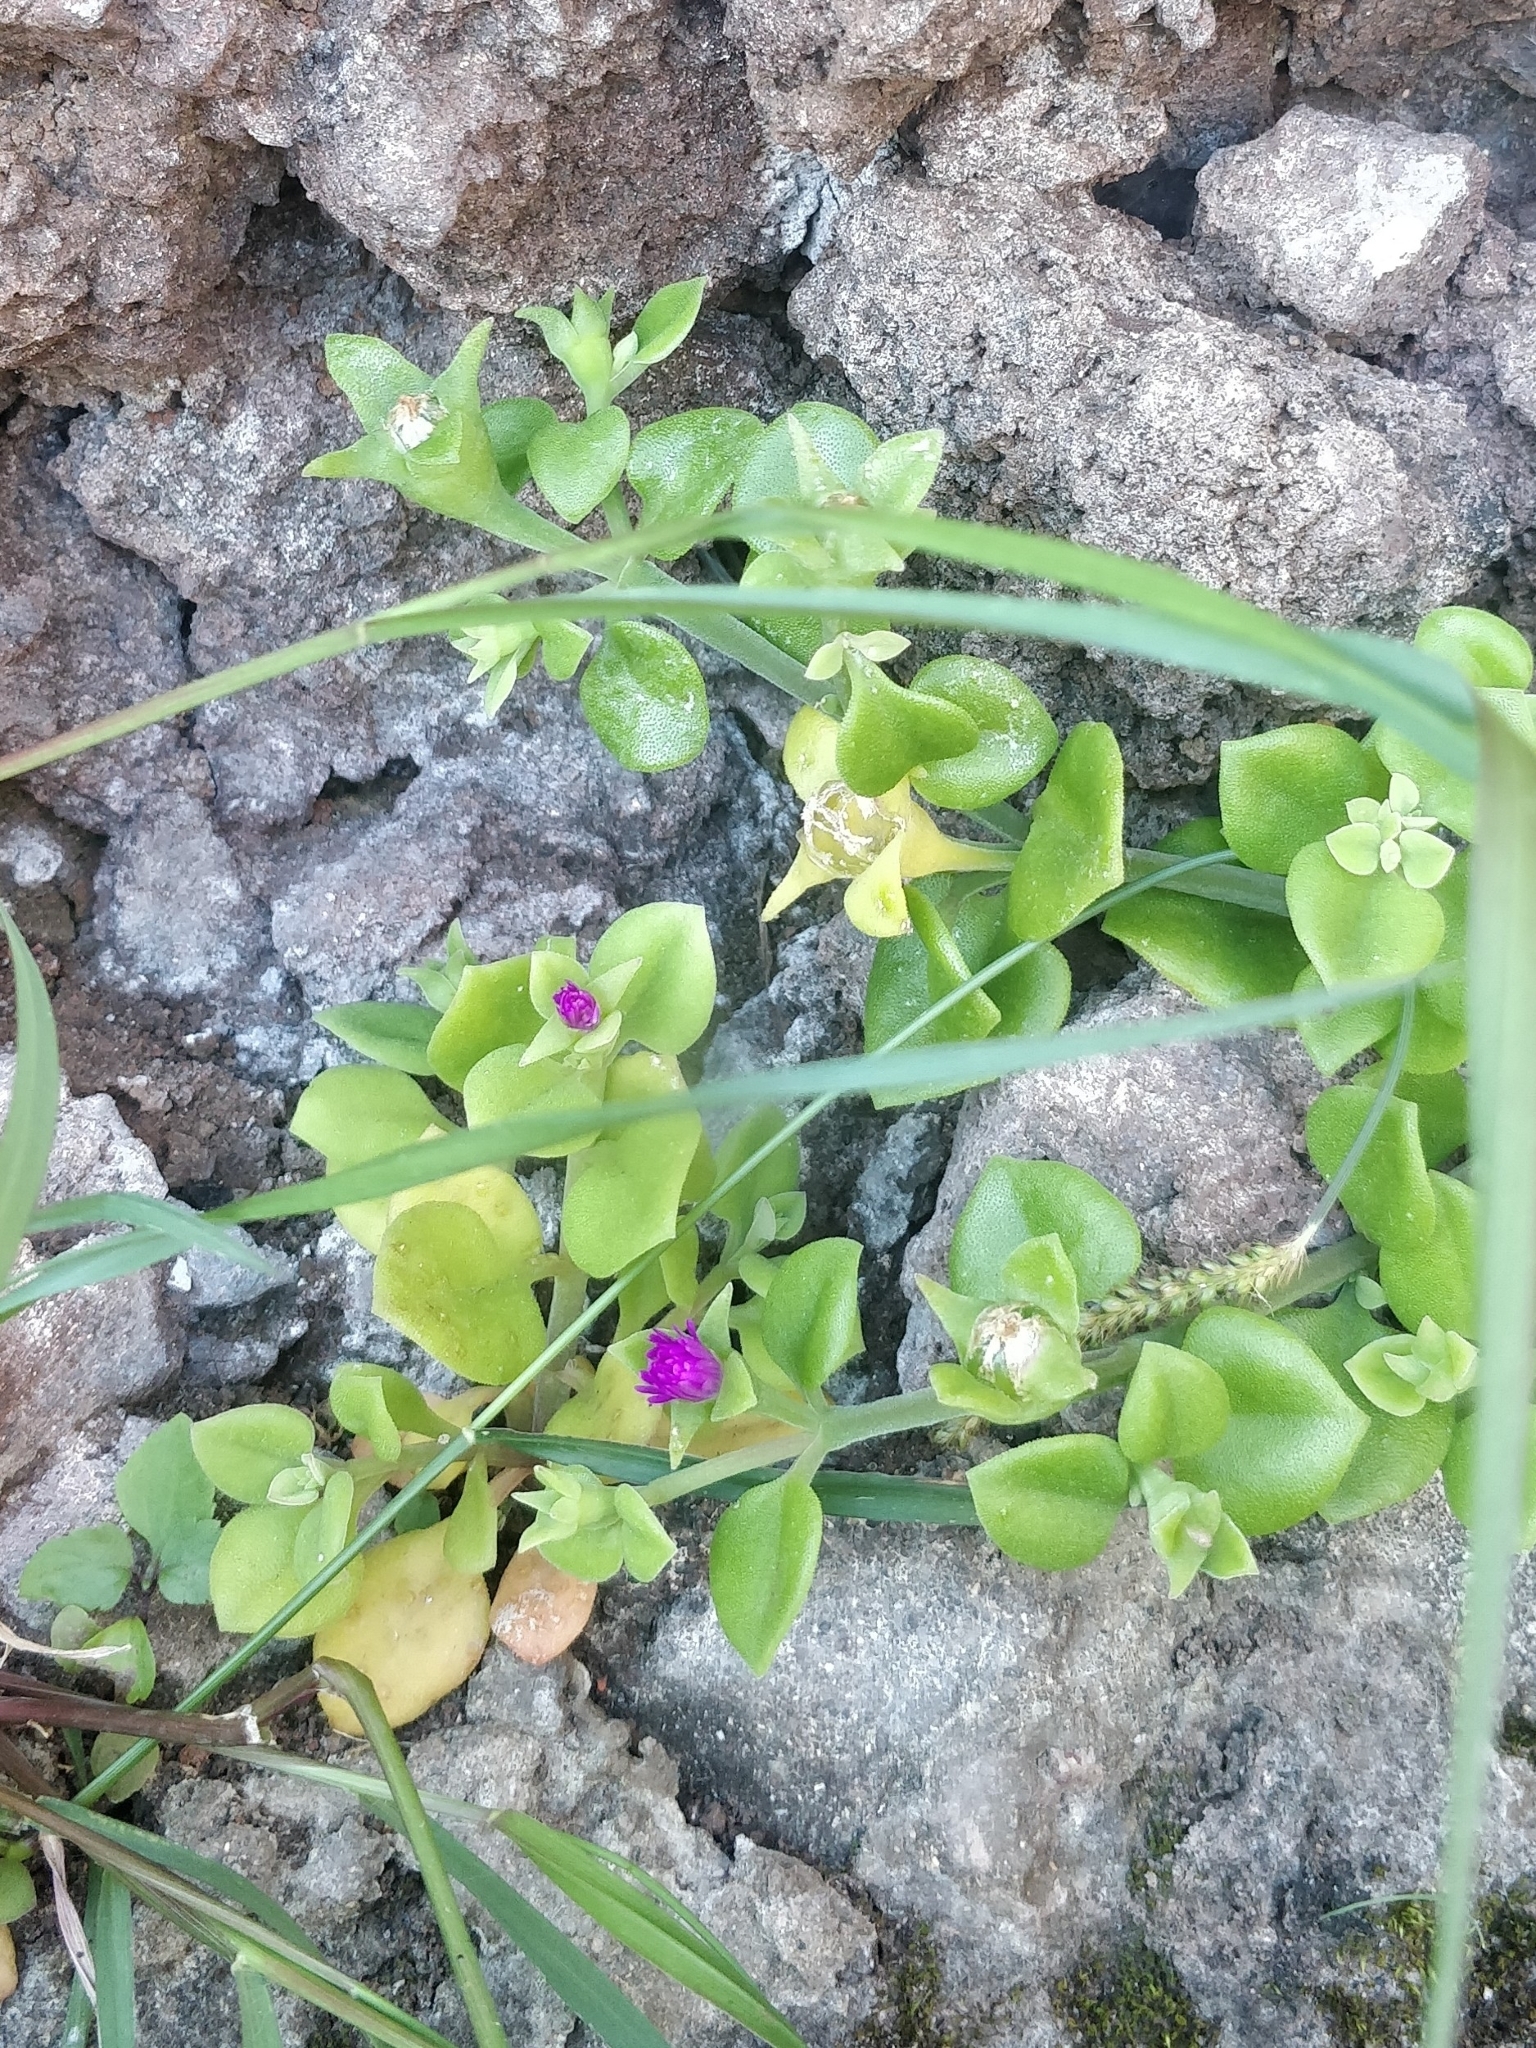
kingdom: Plantae
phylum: Tracheophyta
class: Magnoliopsida
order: Caryophyllales
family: Aizoaceae
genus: Mesembryanthemum
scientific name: Mesembryanthemum cordifolium
